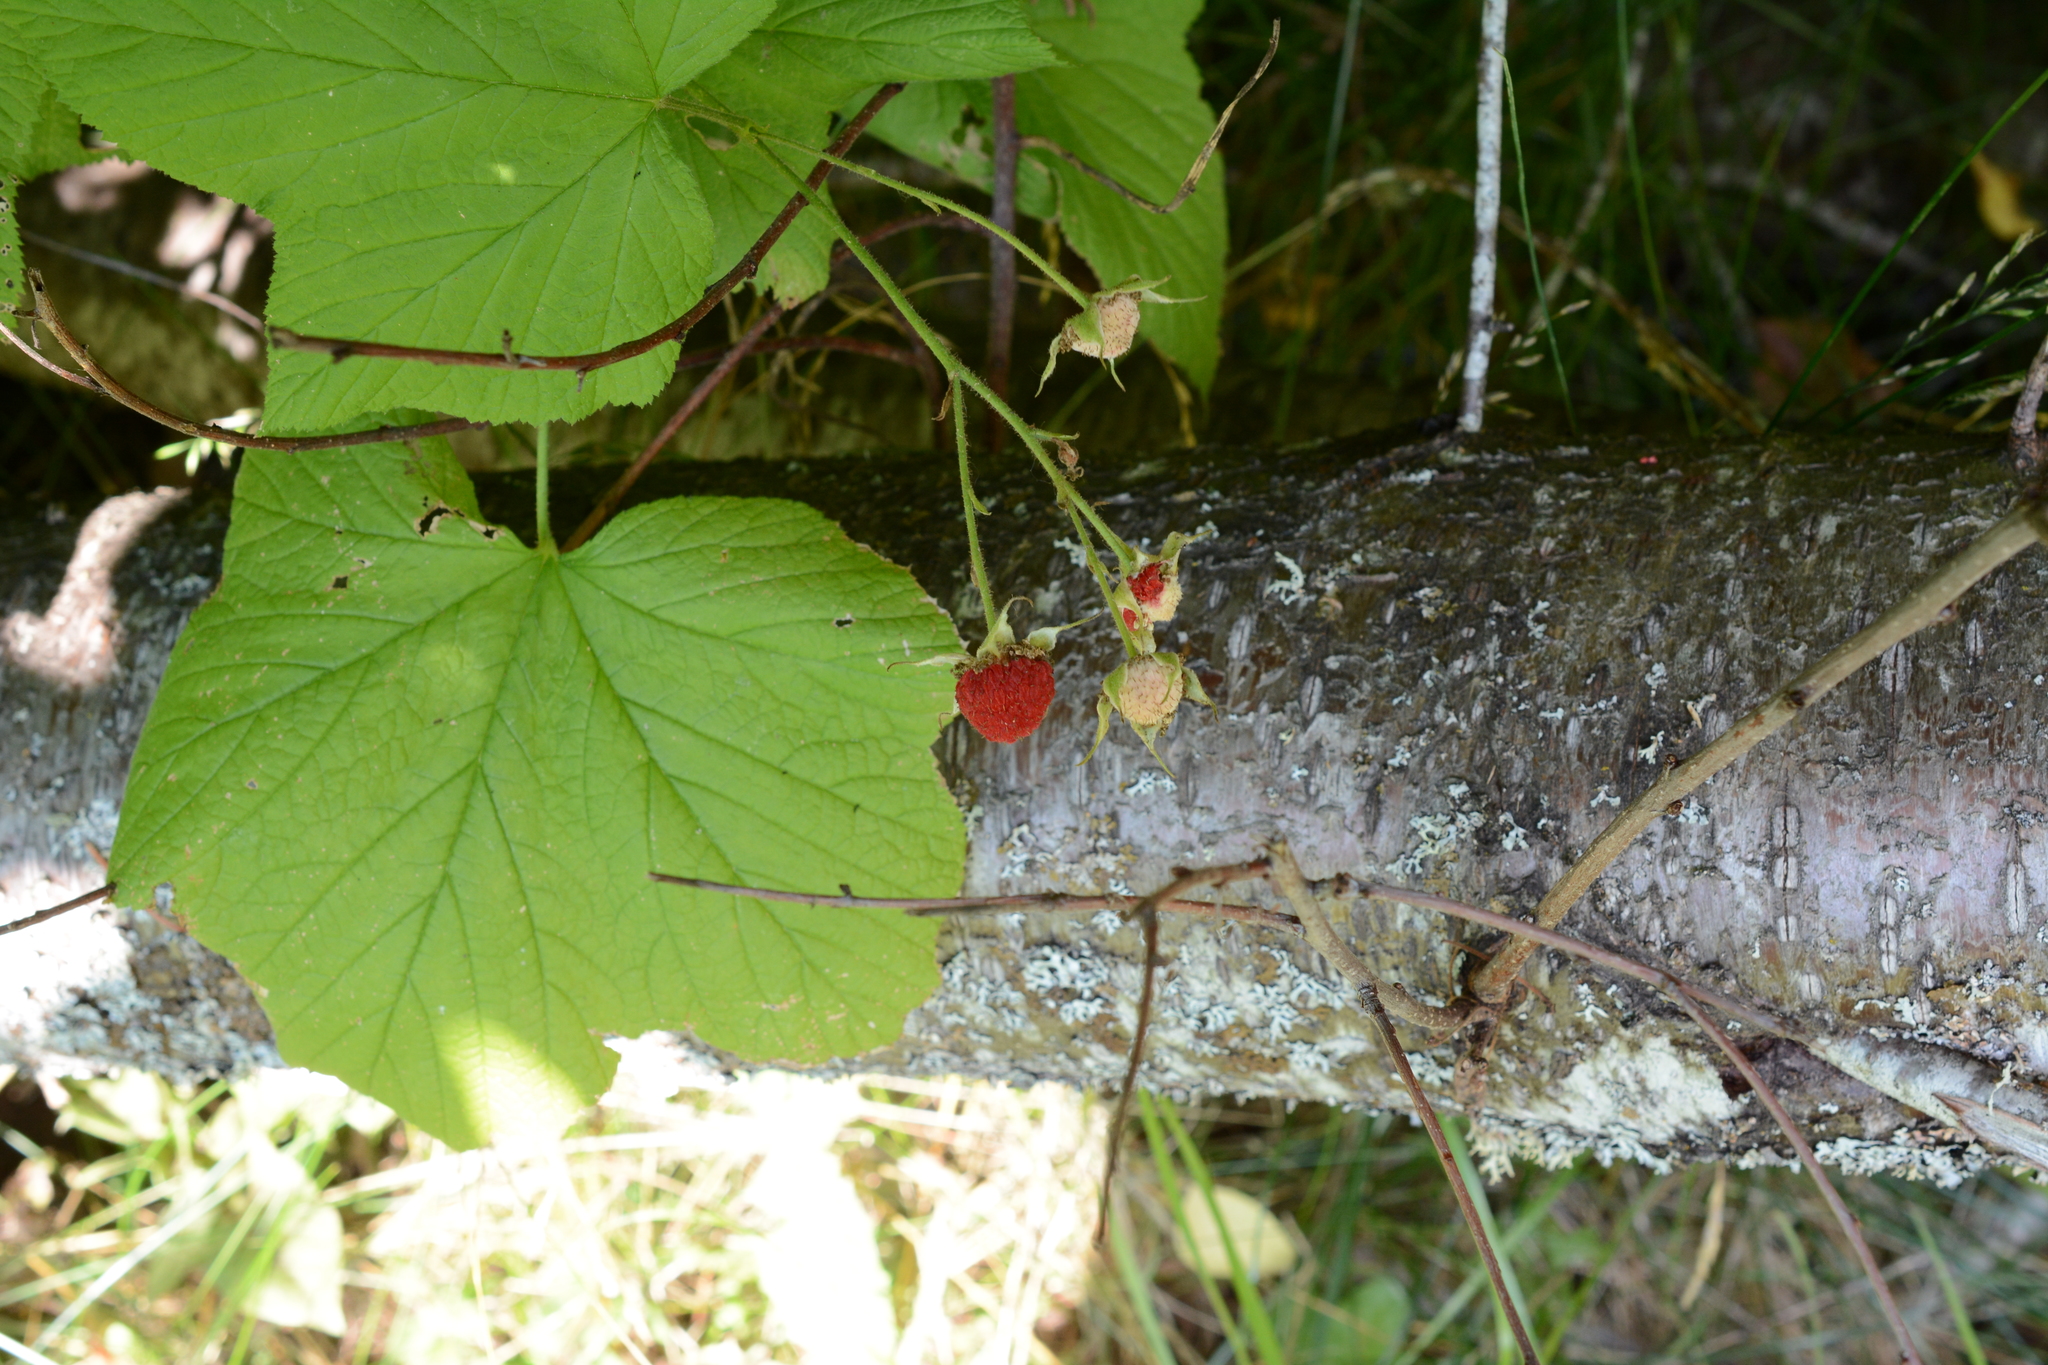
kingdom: Plantae
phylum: Tracheophyta
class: Magnoliopsida
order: Rosales
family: Rosaceae
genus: Rubus
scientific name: Rubus parviflorus
